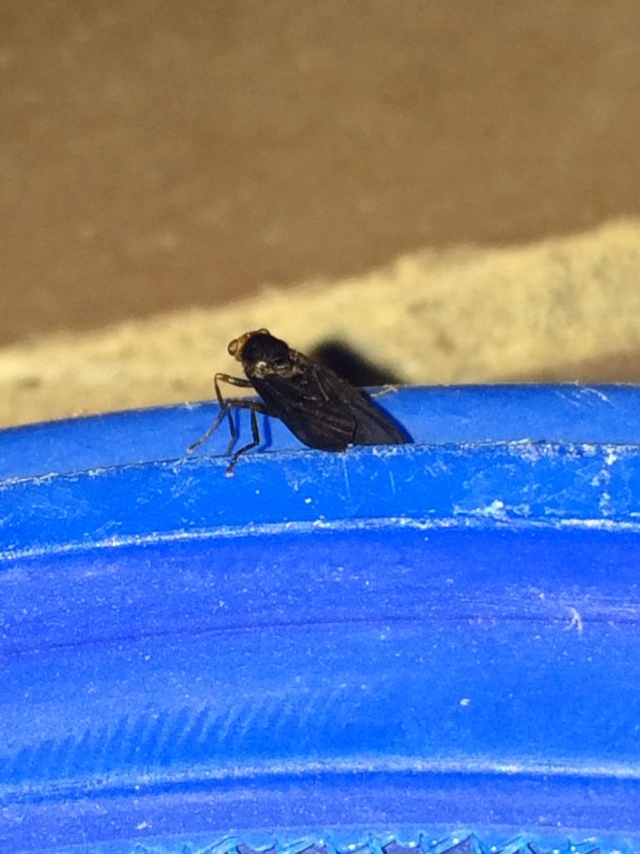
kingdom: Animalia
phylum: Arthropoda
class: Insecta
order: Diptera
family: Stratiomyidae
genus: Inopus
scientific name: Inopus rubriceps
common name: Soldier fly
